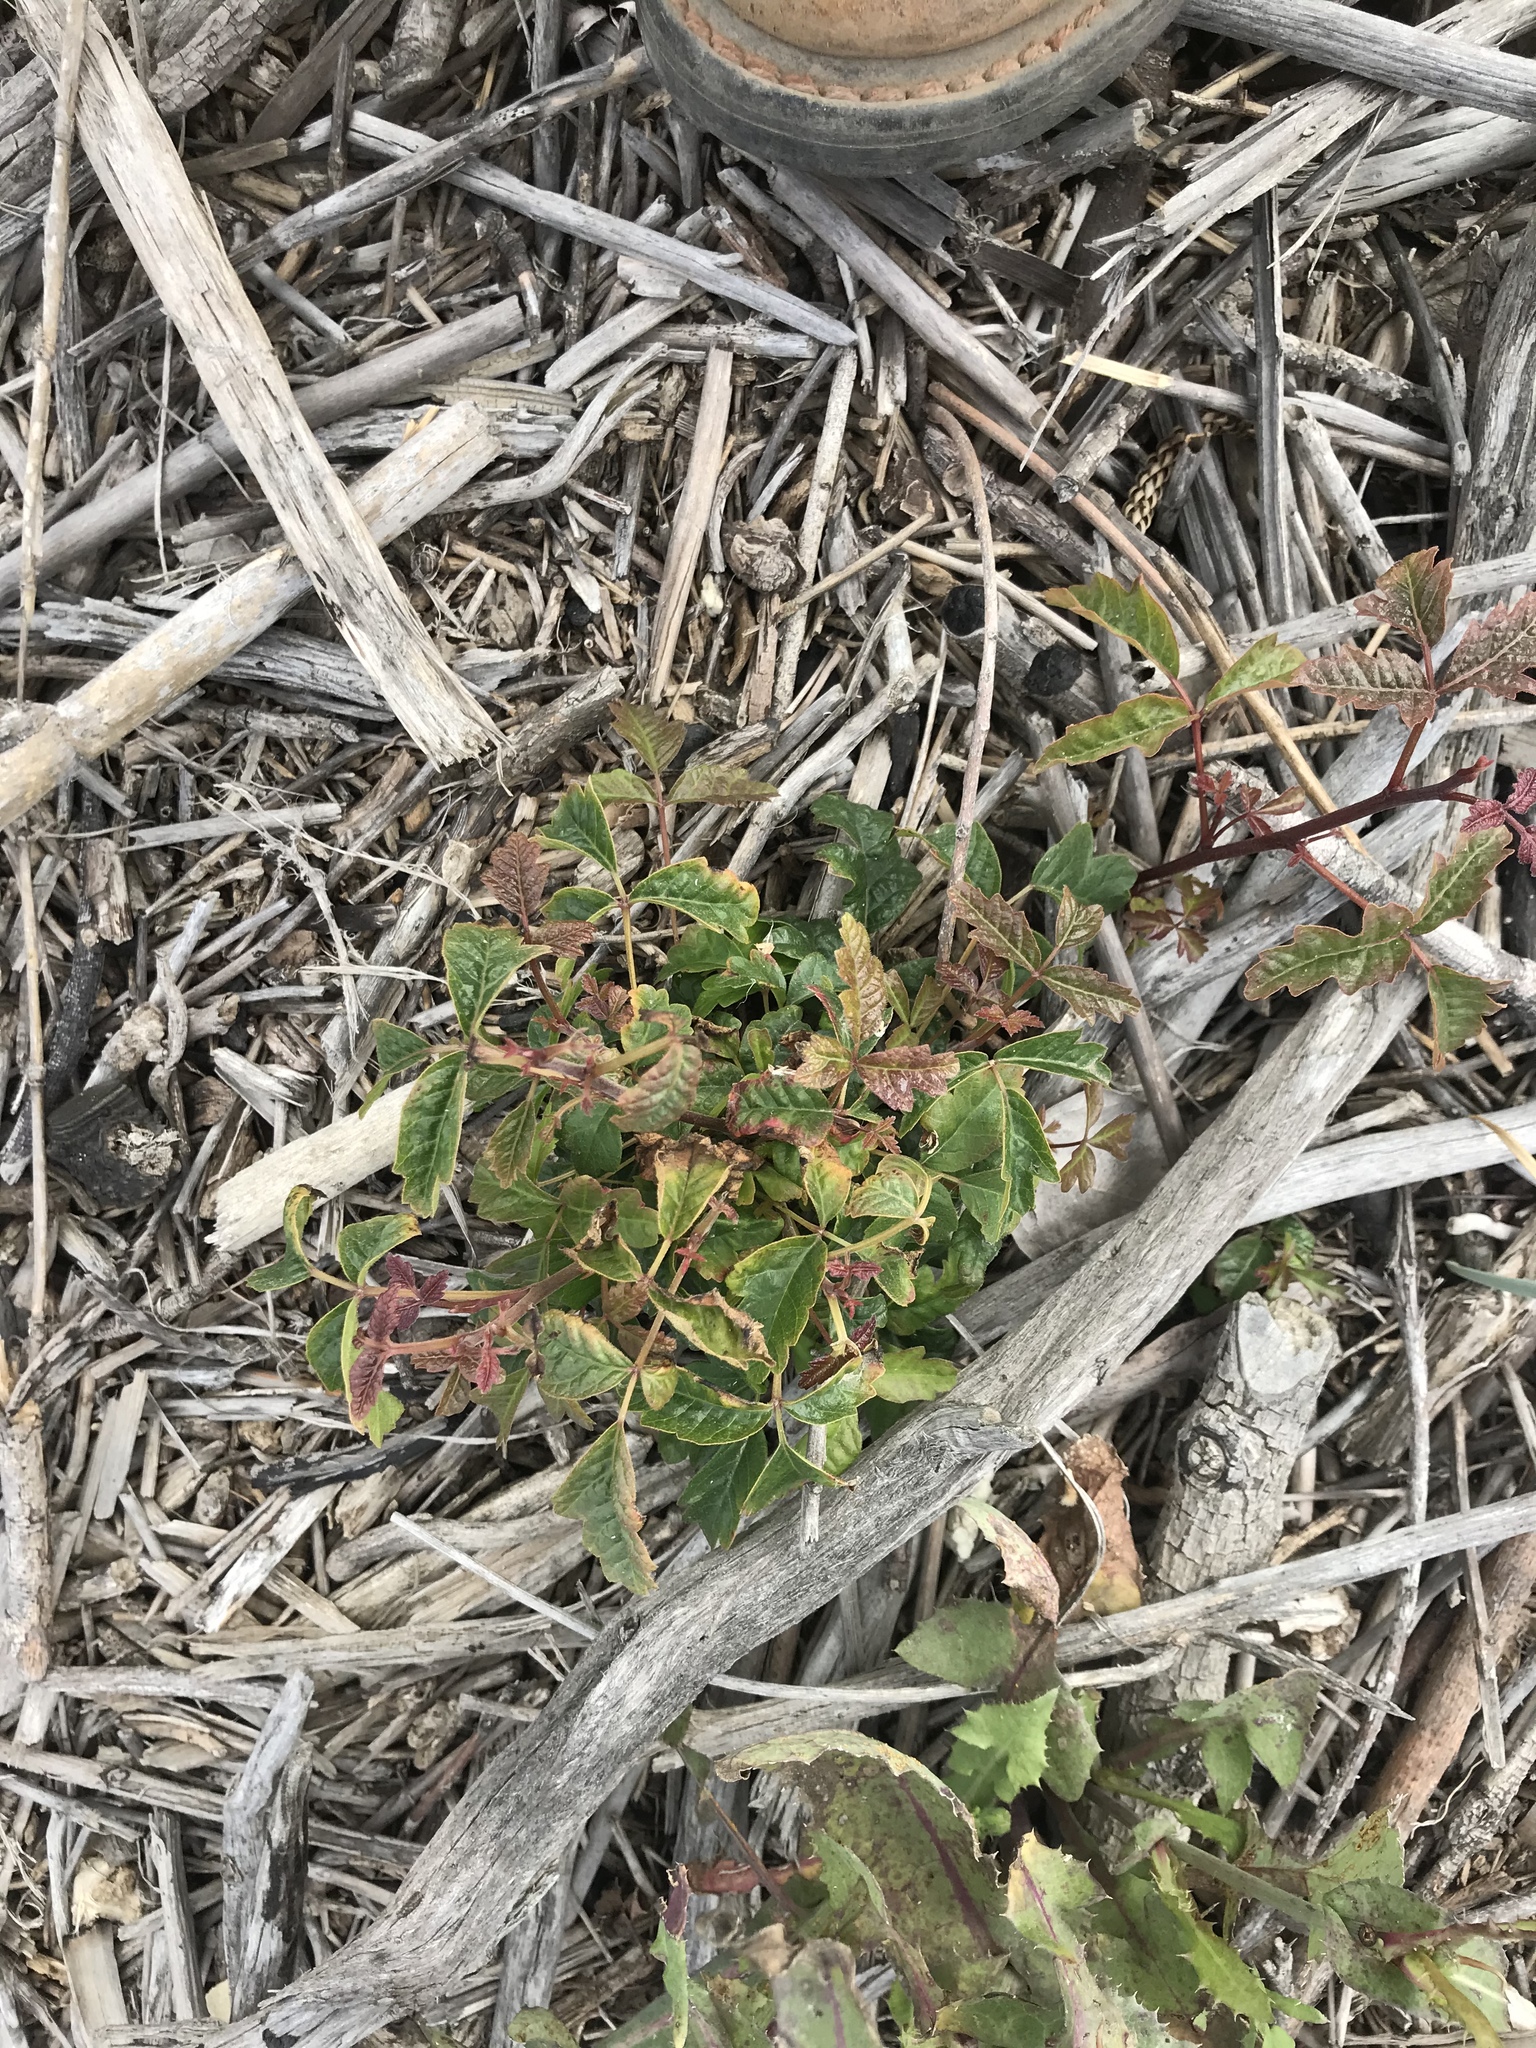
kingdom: Plantae
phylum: Tracheophyta
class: Magnoliopsida
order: Sapindales
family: Anacardiaceae
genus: Toxicodendron
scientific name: Toxicodendron diversilobum
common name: Pacific poison-oak
